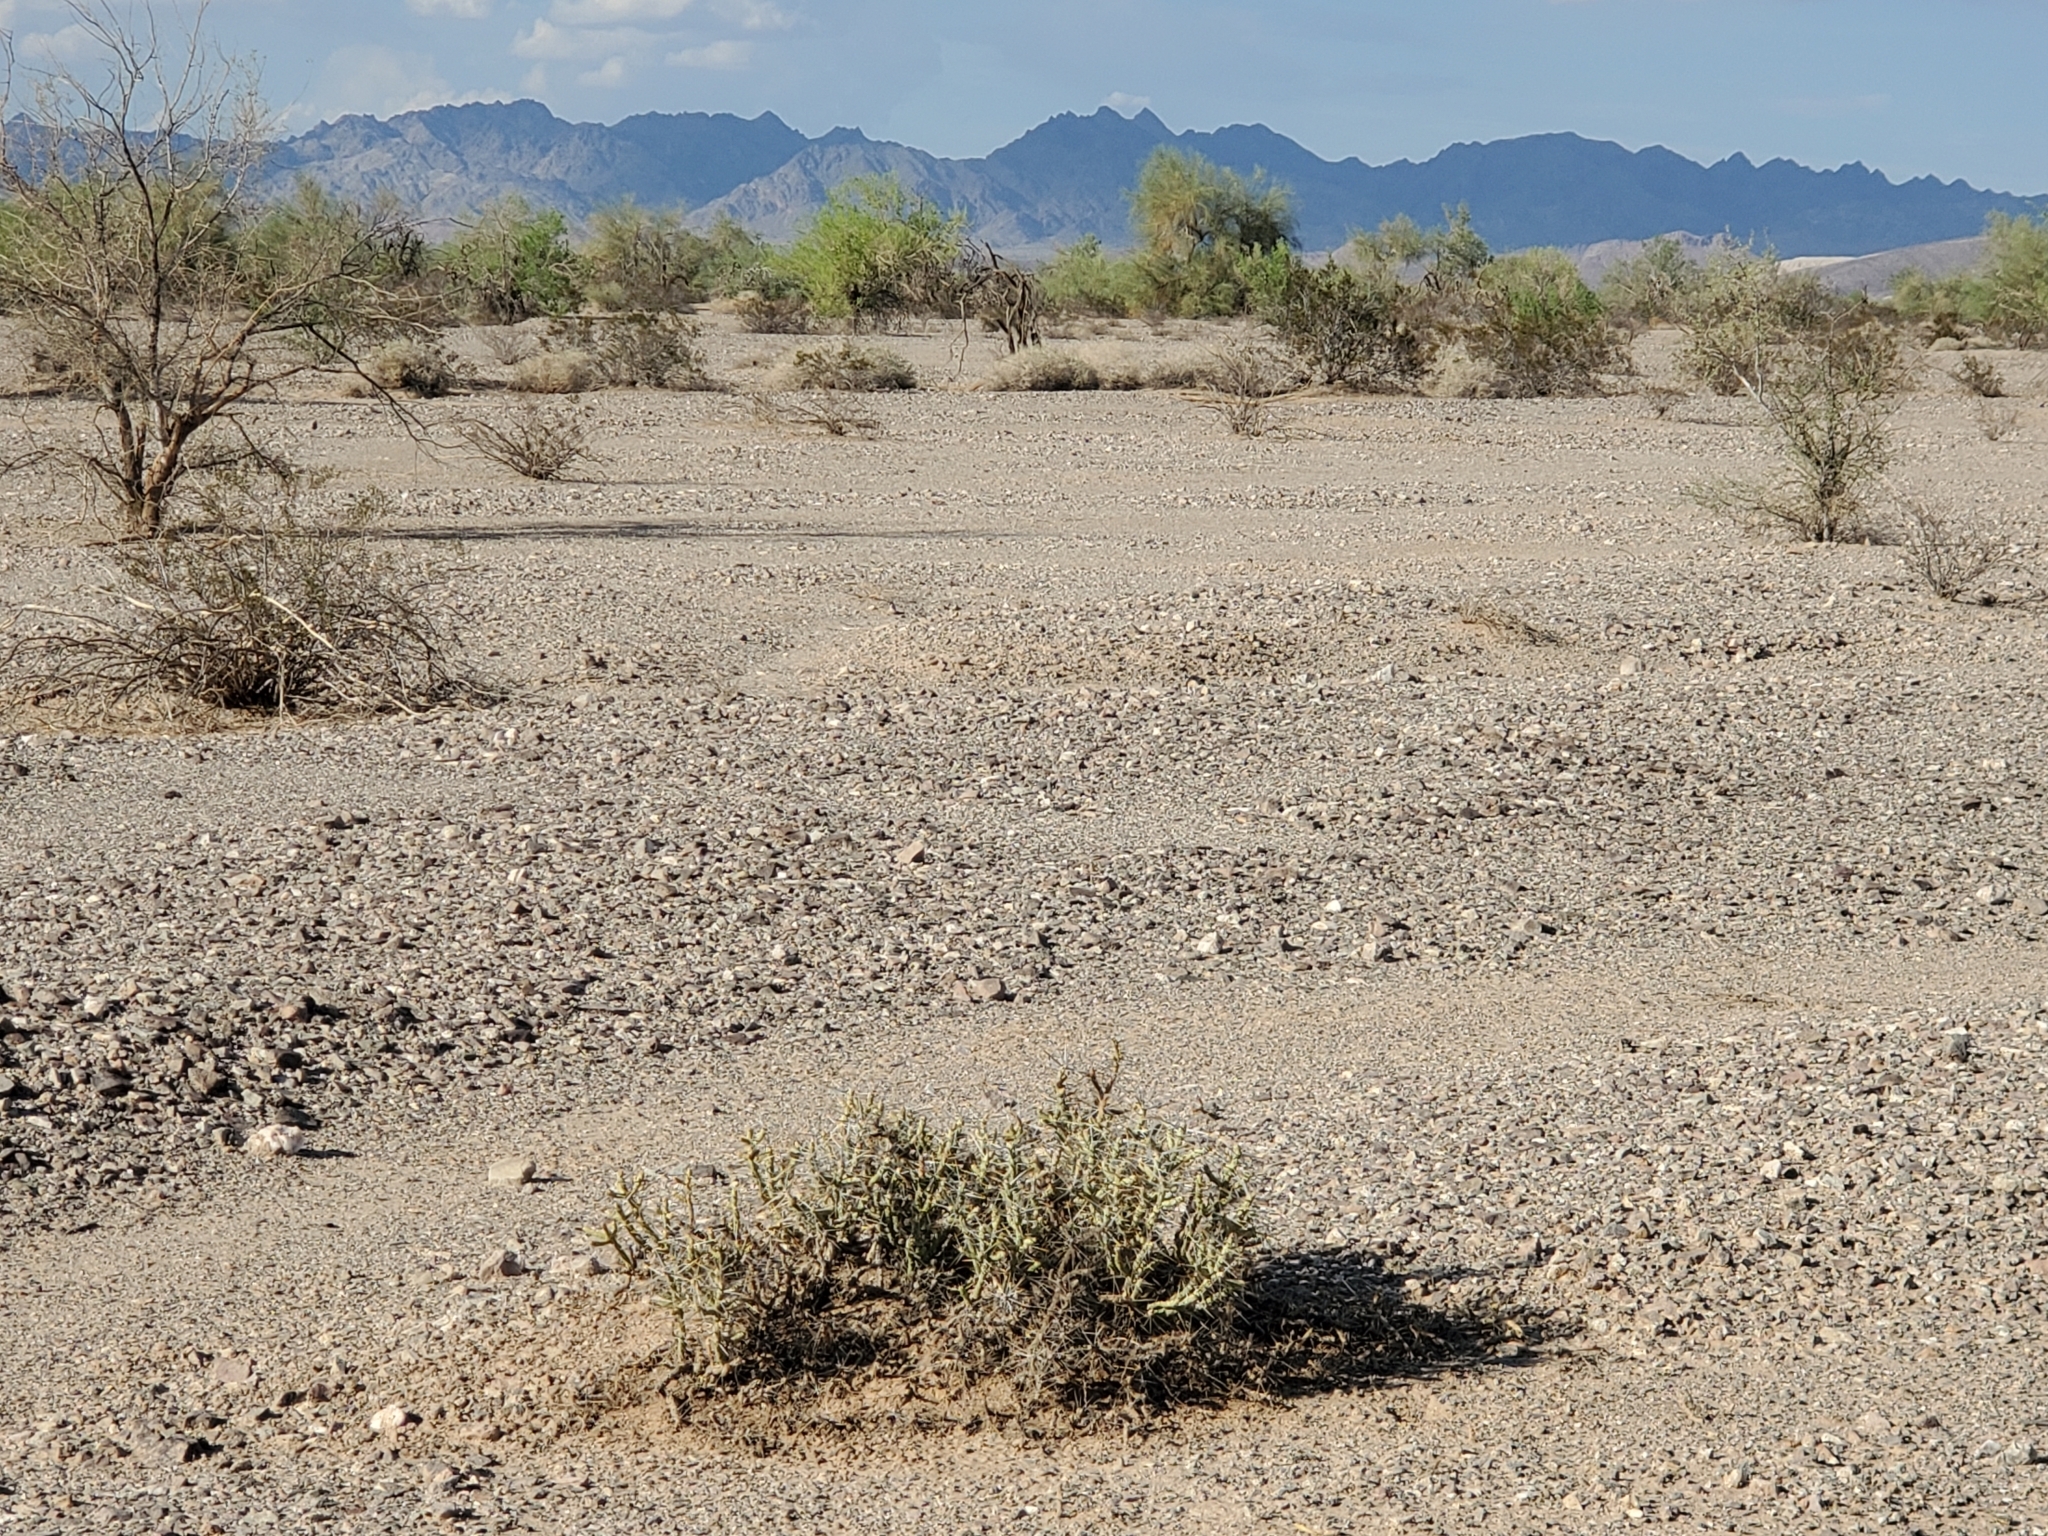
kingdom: Plantae
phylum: Tracheophyta
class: Magnoliopsida
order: Caryophyllales
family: Cactaceae
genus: Cylindropuntia
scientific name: Cylindropuntia ramosissima
